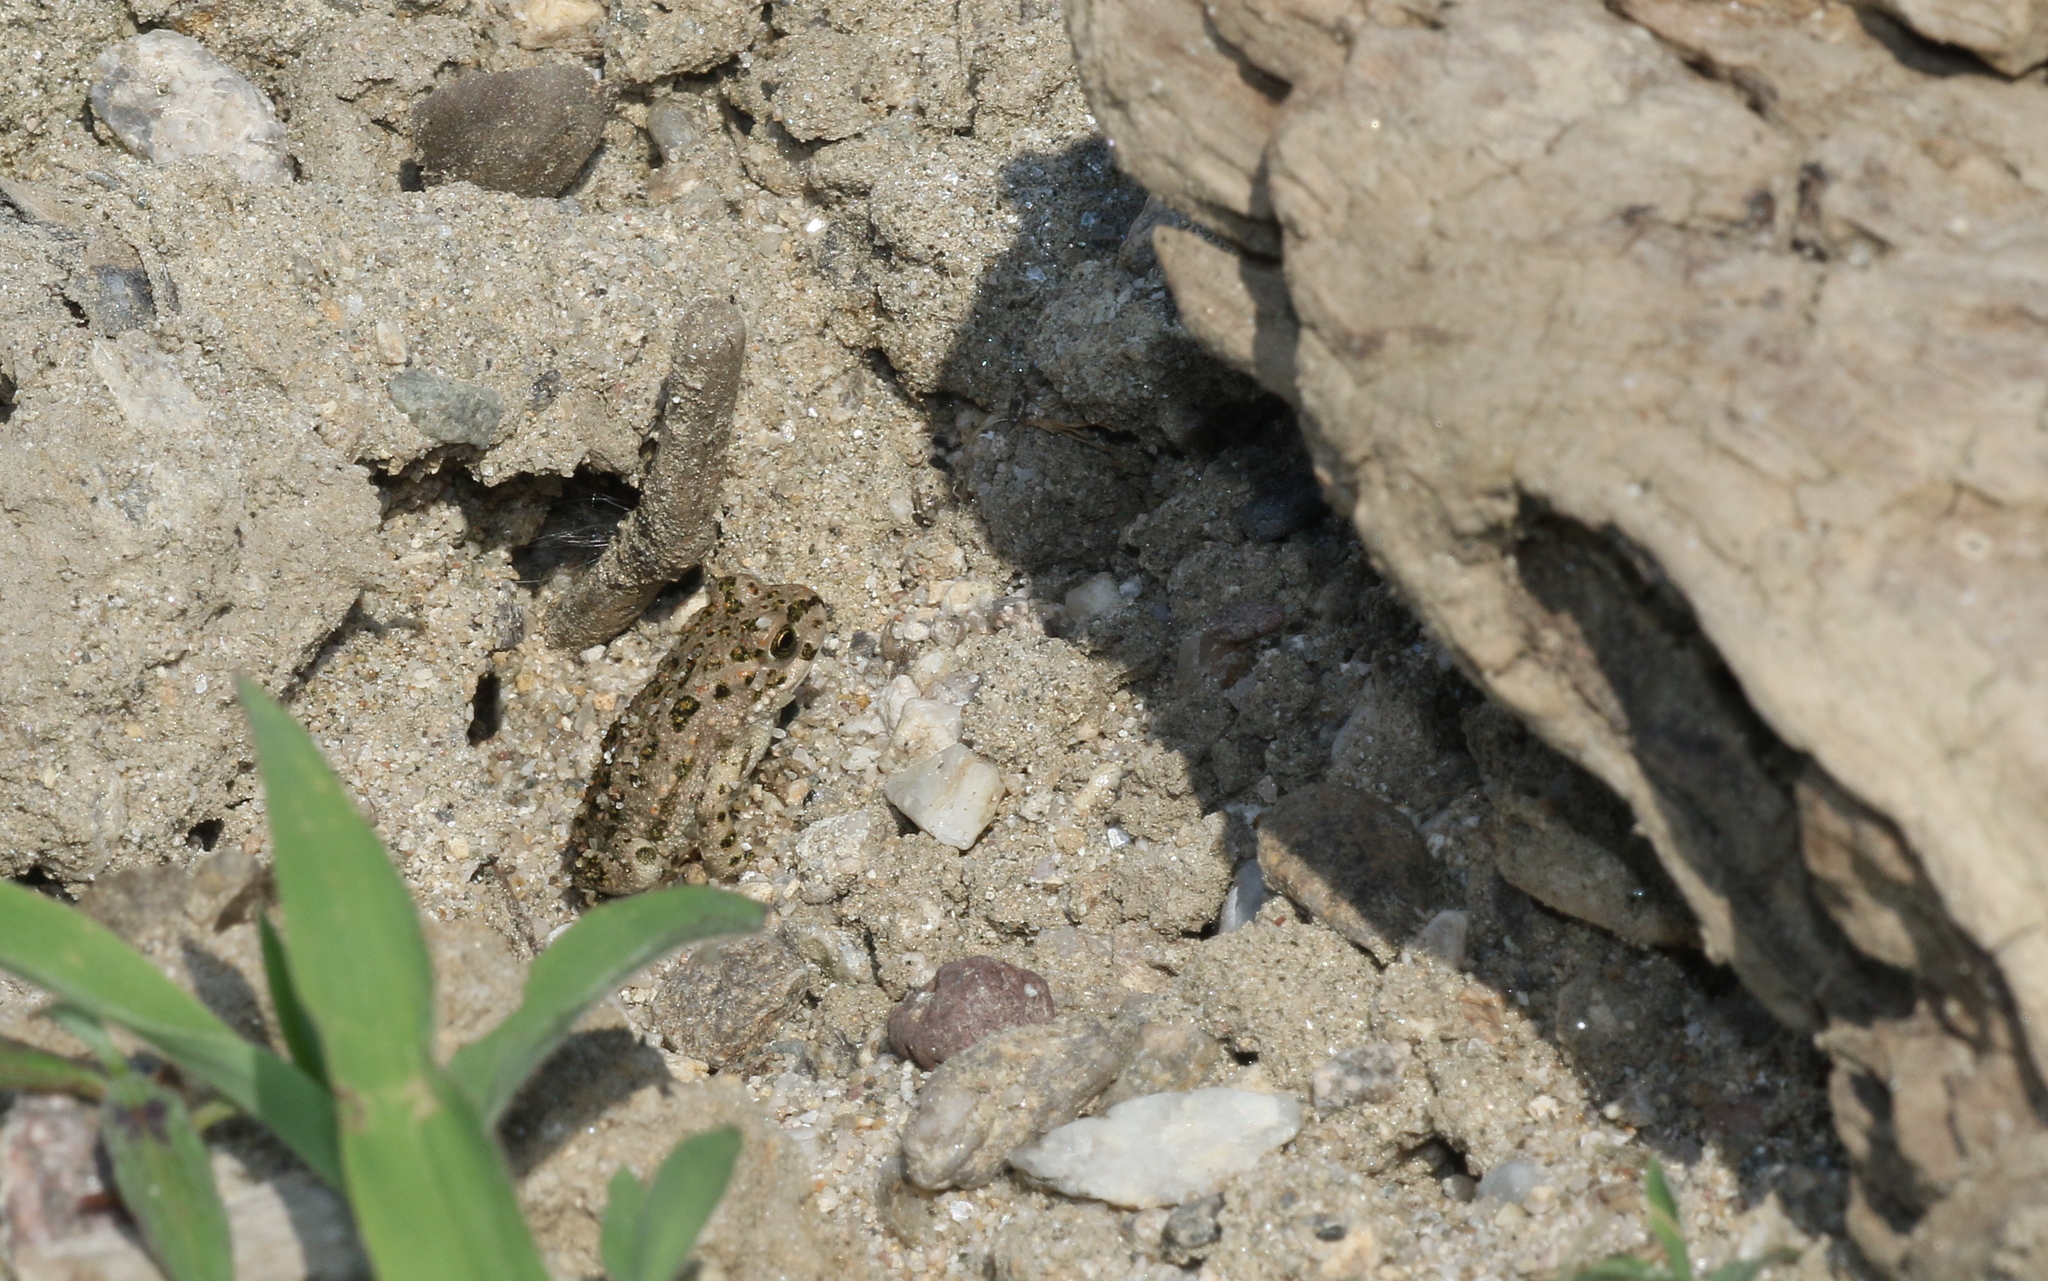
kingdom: Animalia
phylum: Chordata
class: Amphibia
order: Anura
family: Bufonidae
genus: Bufotes
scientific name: Bufotes viridis
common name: European green toad
